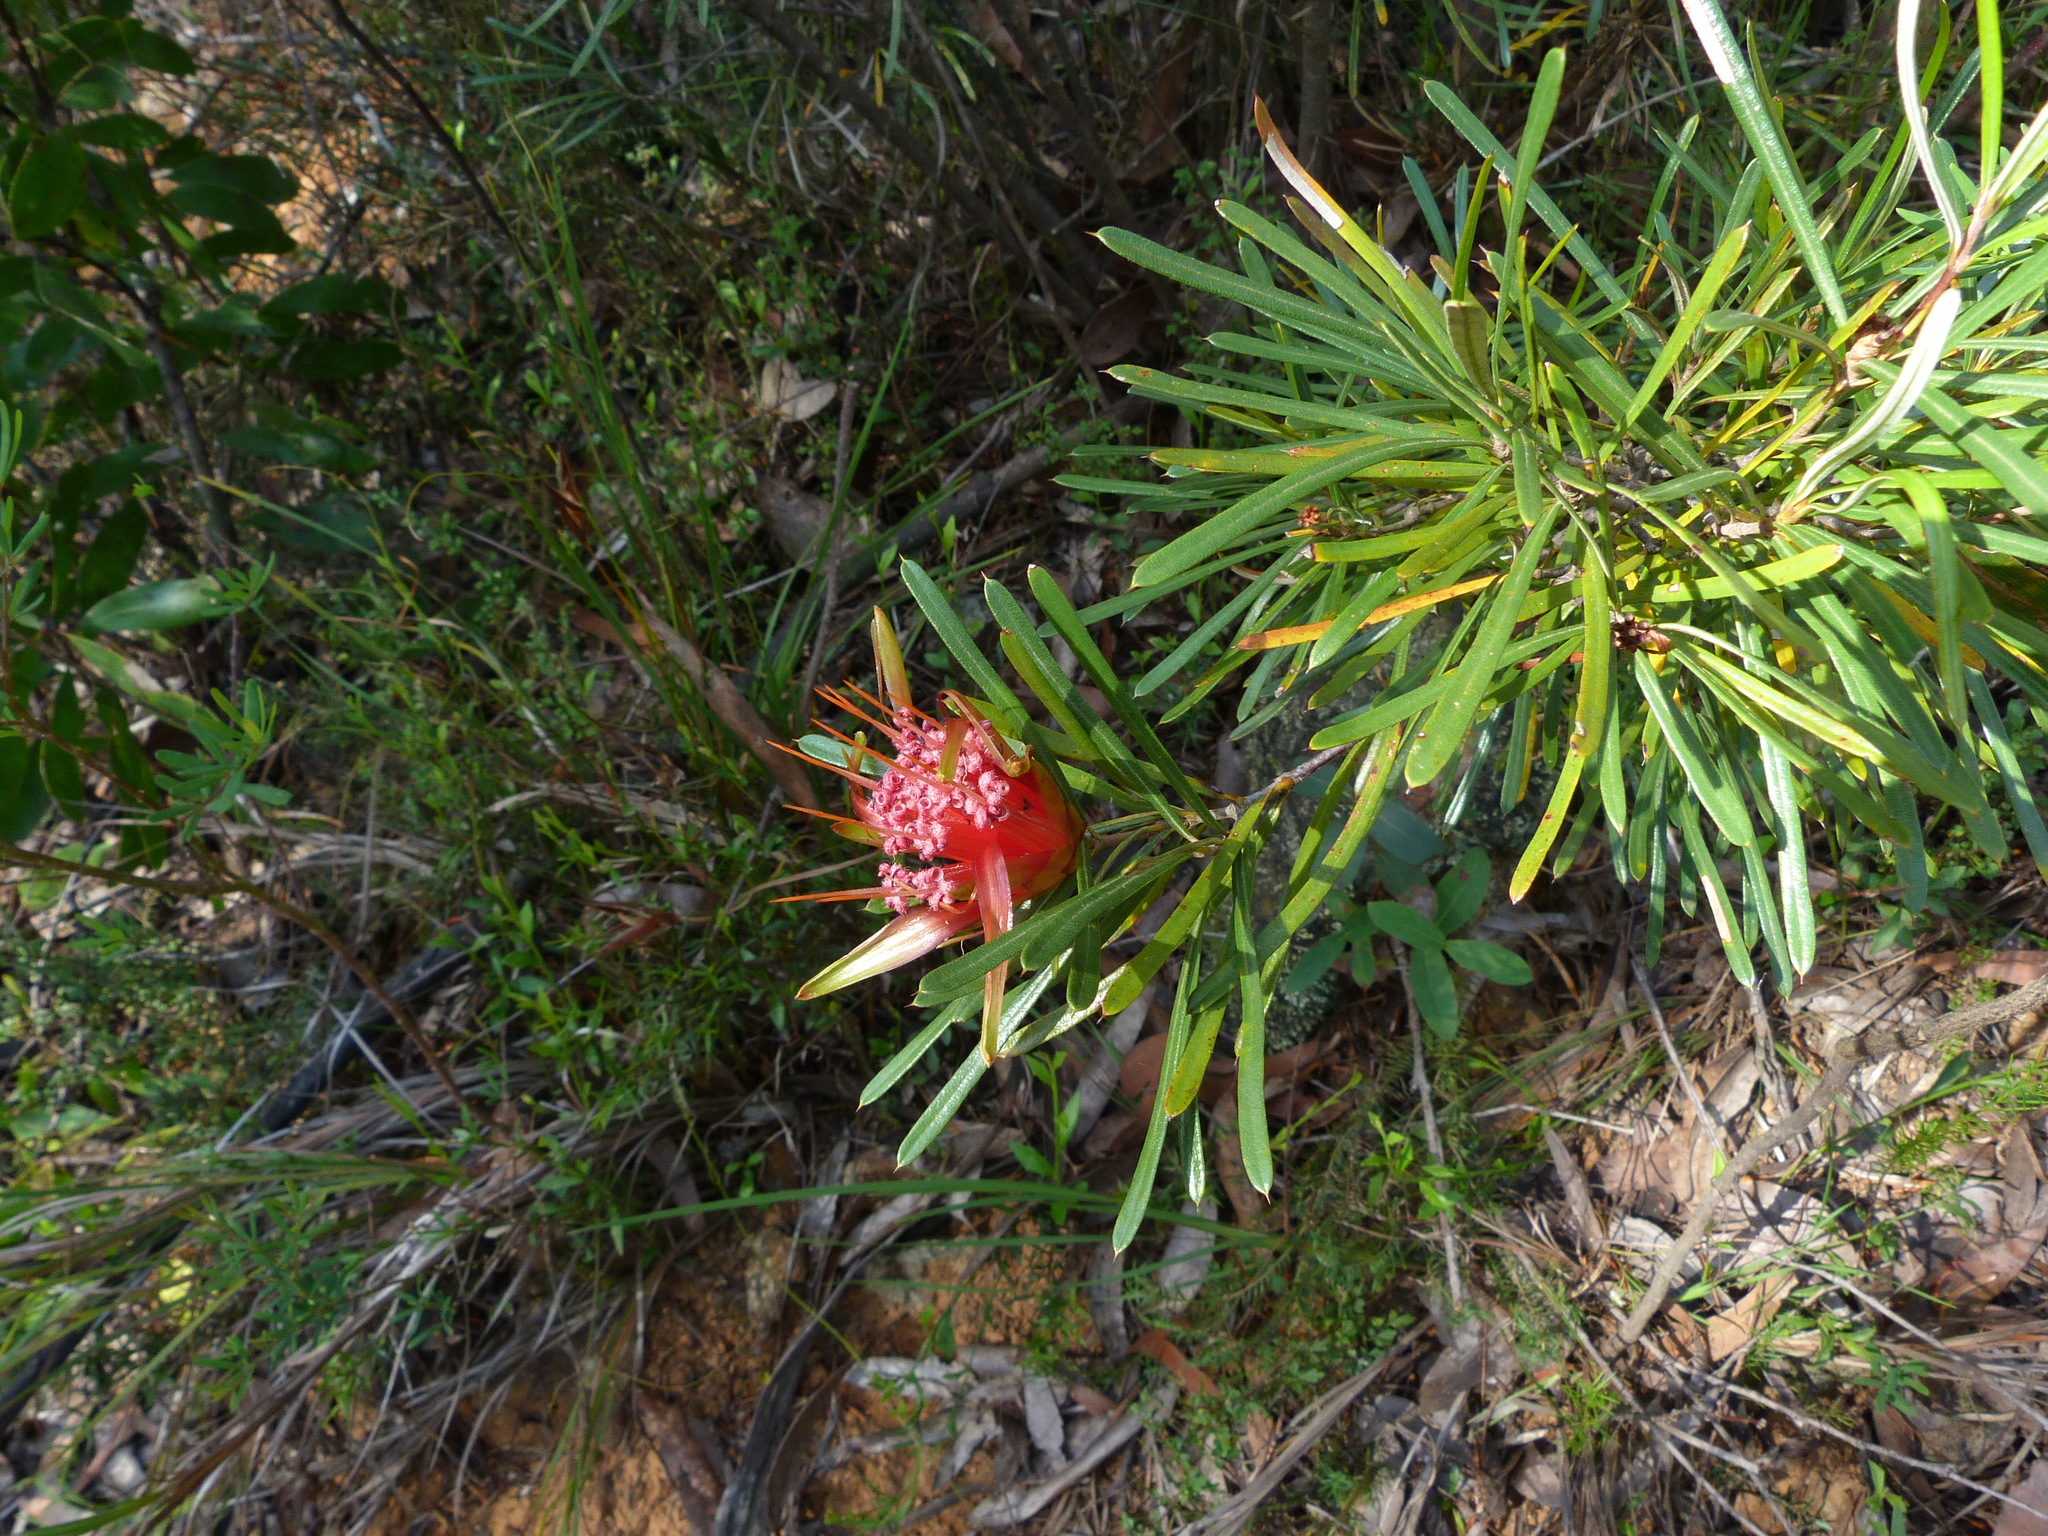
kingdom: Plantae
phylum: Tracheophyta
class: Magnoliopsida
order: Proteales
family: Proteaceae
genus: Lambertia
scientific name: Lambertia formosa
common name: Mountain-devil
